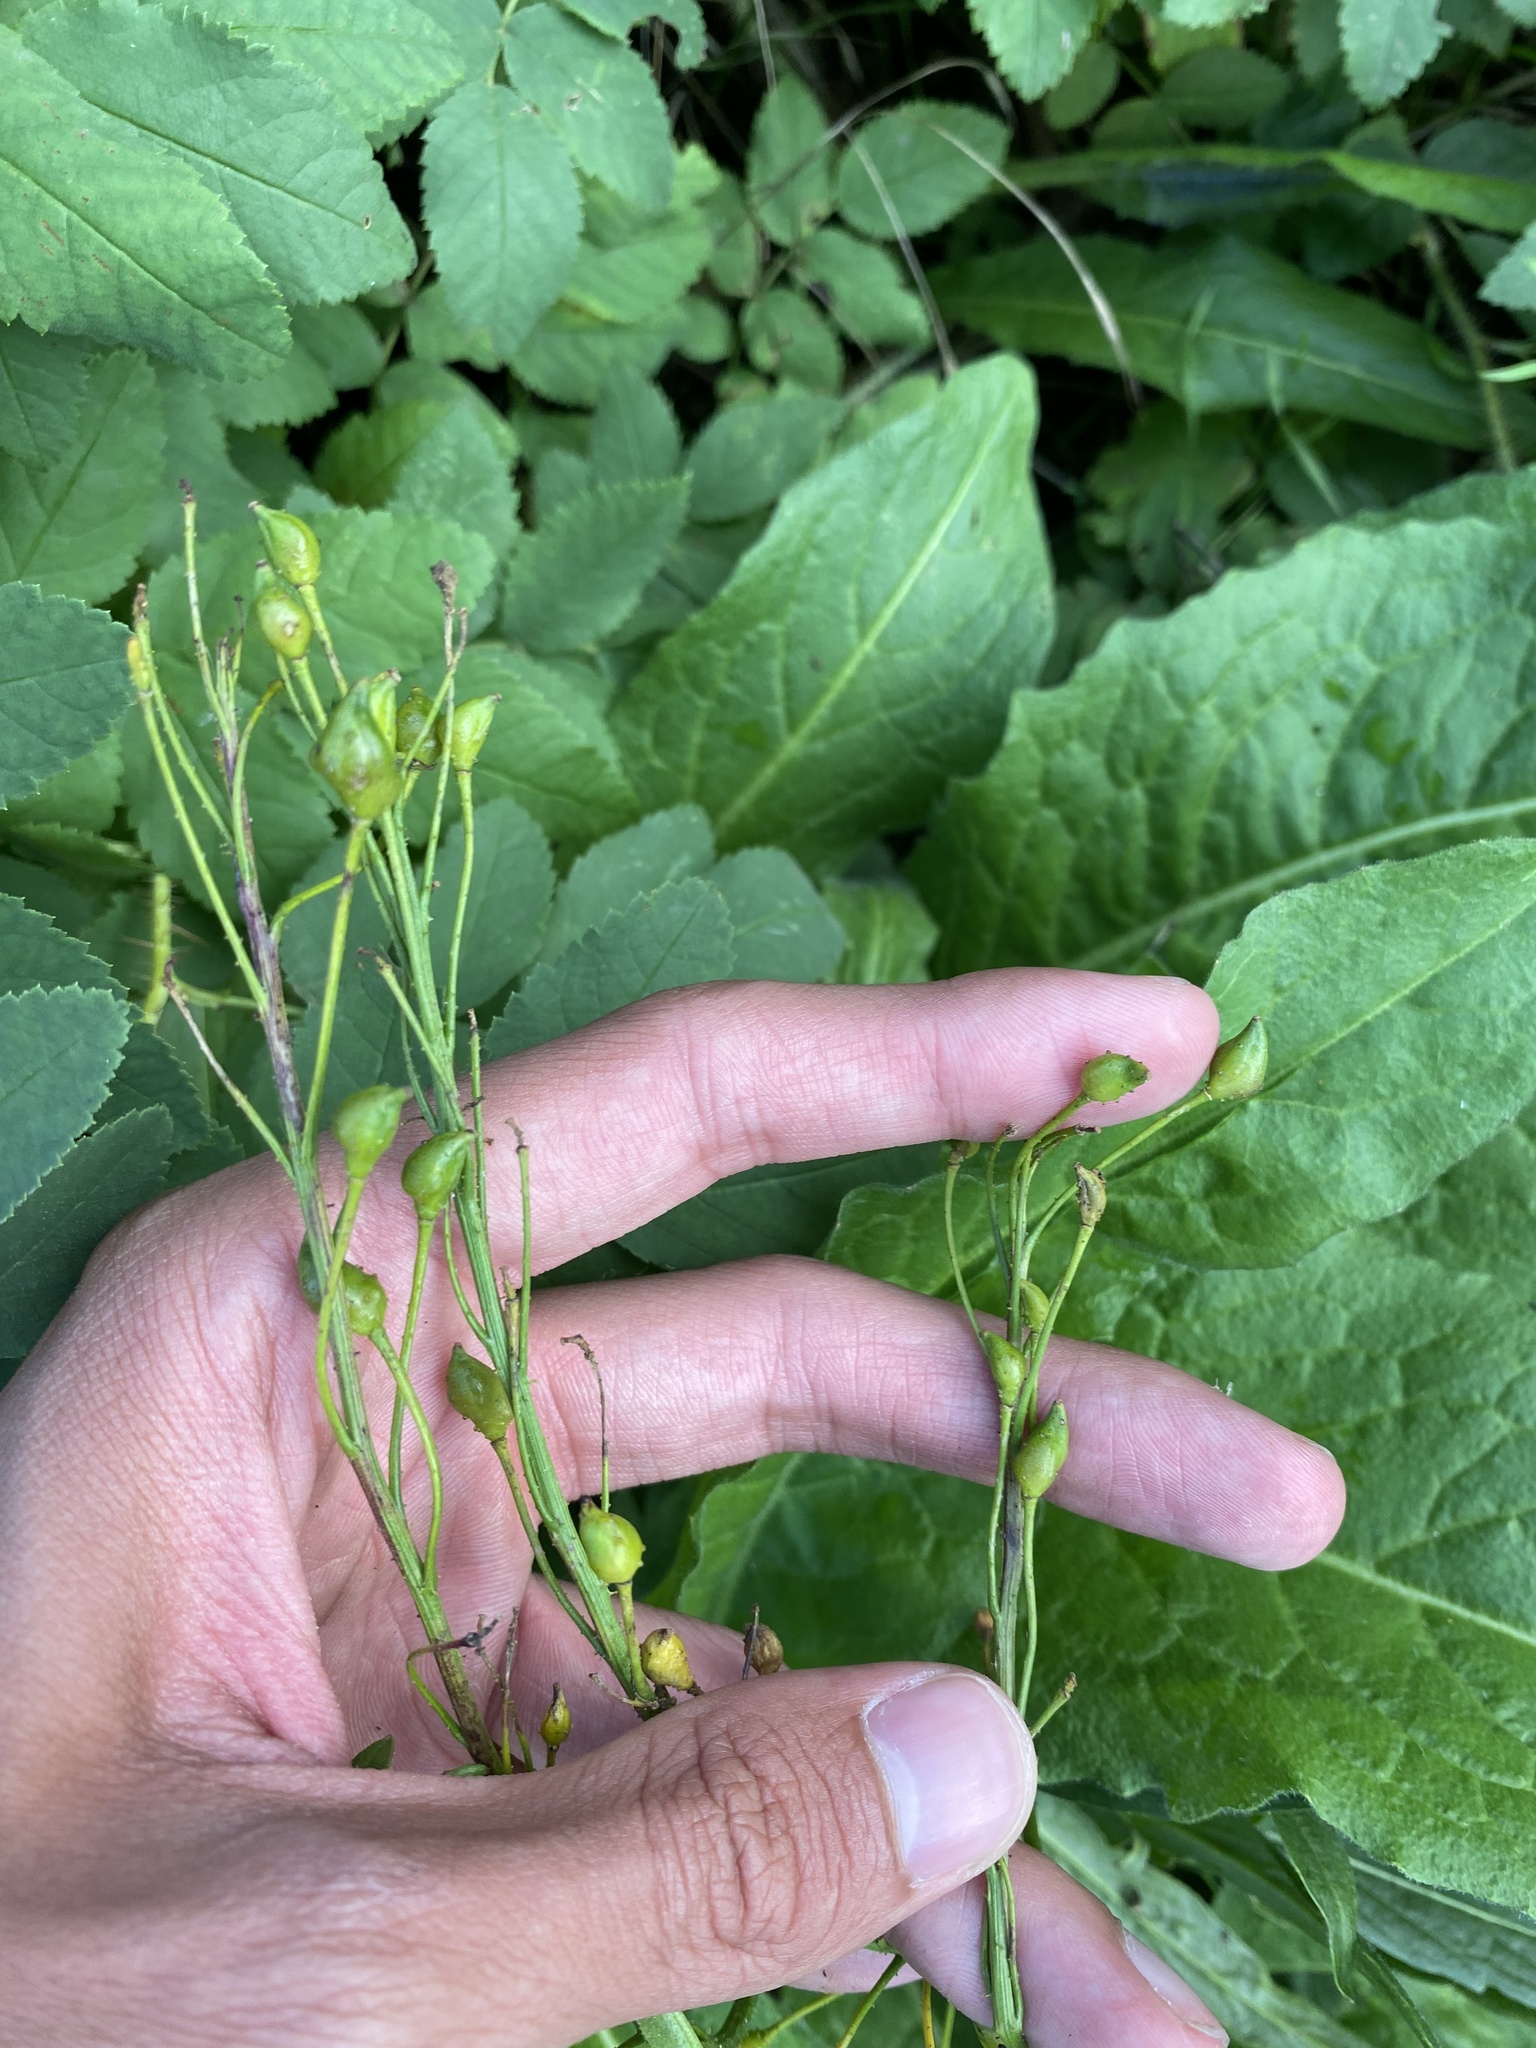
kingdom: Plantae
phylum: Tracheophyta
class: Magnoliopsida
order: Brassicales
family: Brassicaceae
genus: Bunias
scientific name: Bunias orientalis
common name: Warty-cabbage
